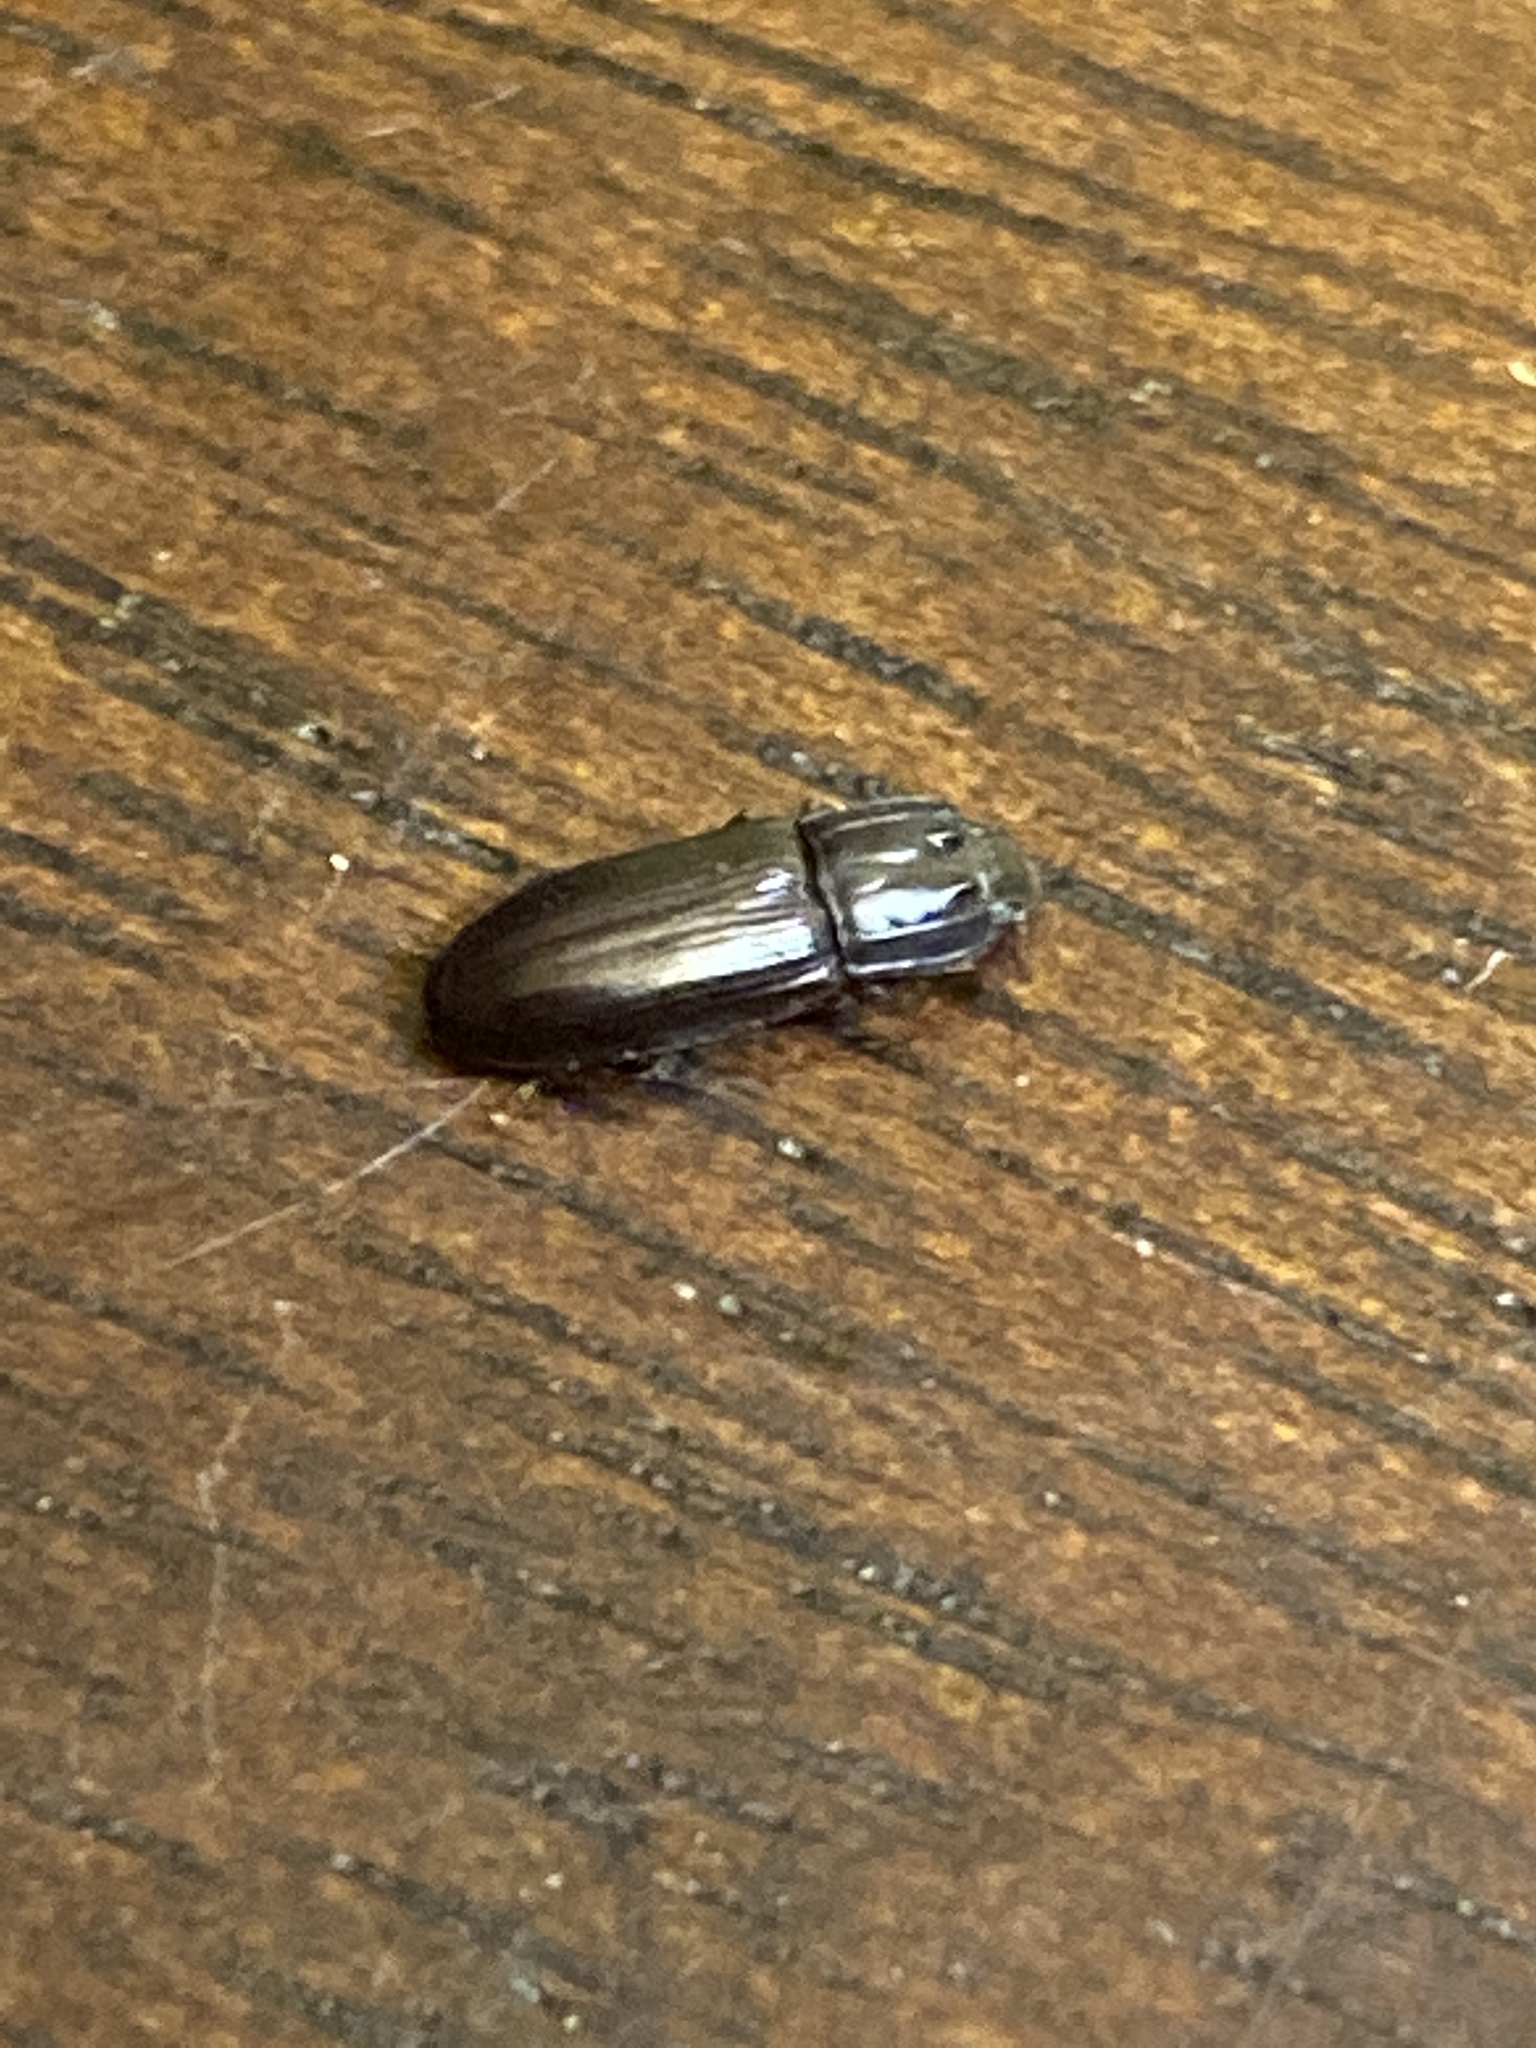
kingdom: Animalia
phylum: Arthropoda
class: Insecta
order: Coleoptera
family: Zopheridae
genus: Aulonium
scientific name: Aulonium parallelopipedum
